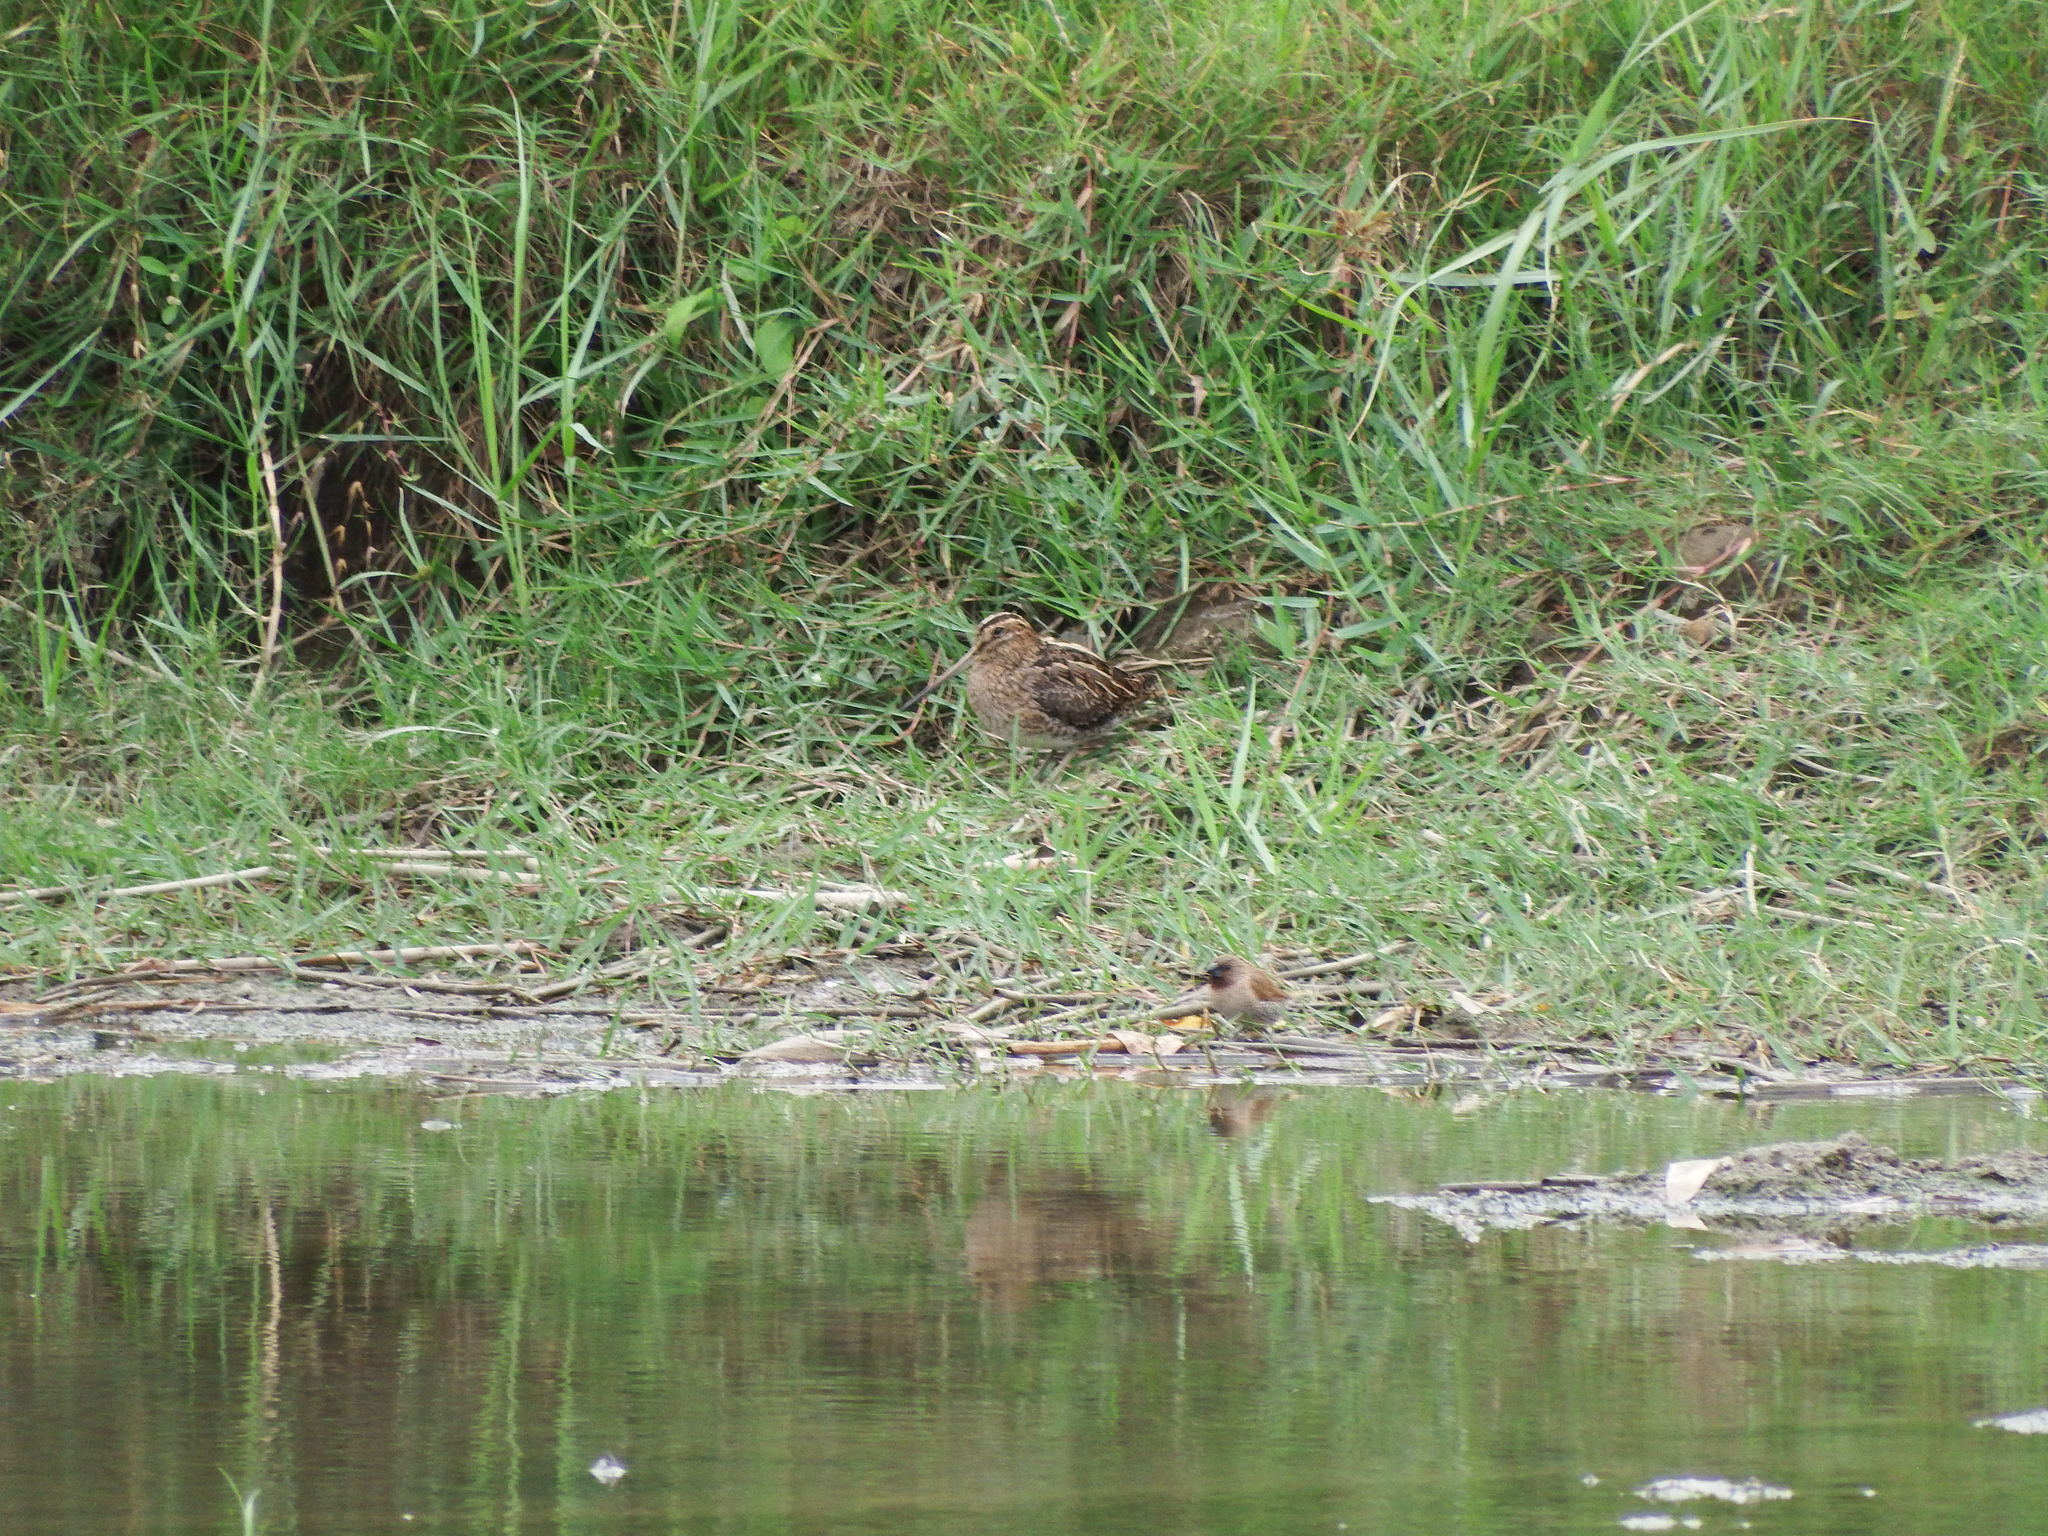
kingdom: Animalia
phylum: Chordata
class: Aves
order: Charadriiformes
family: Scolopacidae
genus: Gallinago
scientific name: Gallinago gallinago
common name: Common snipe
